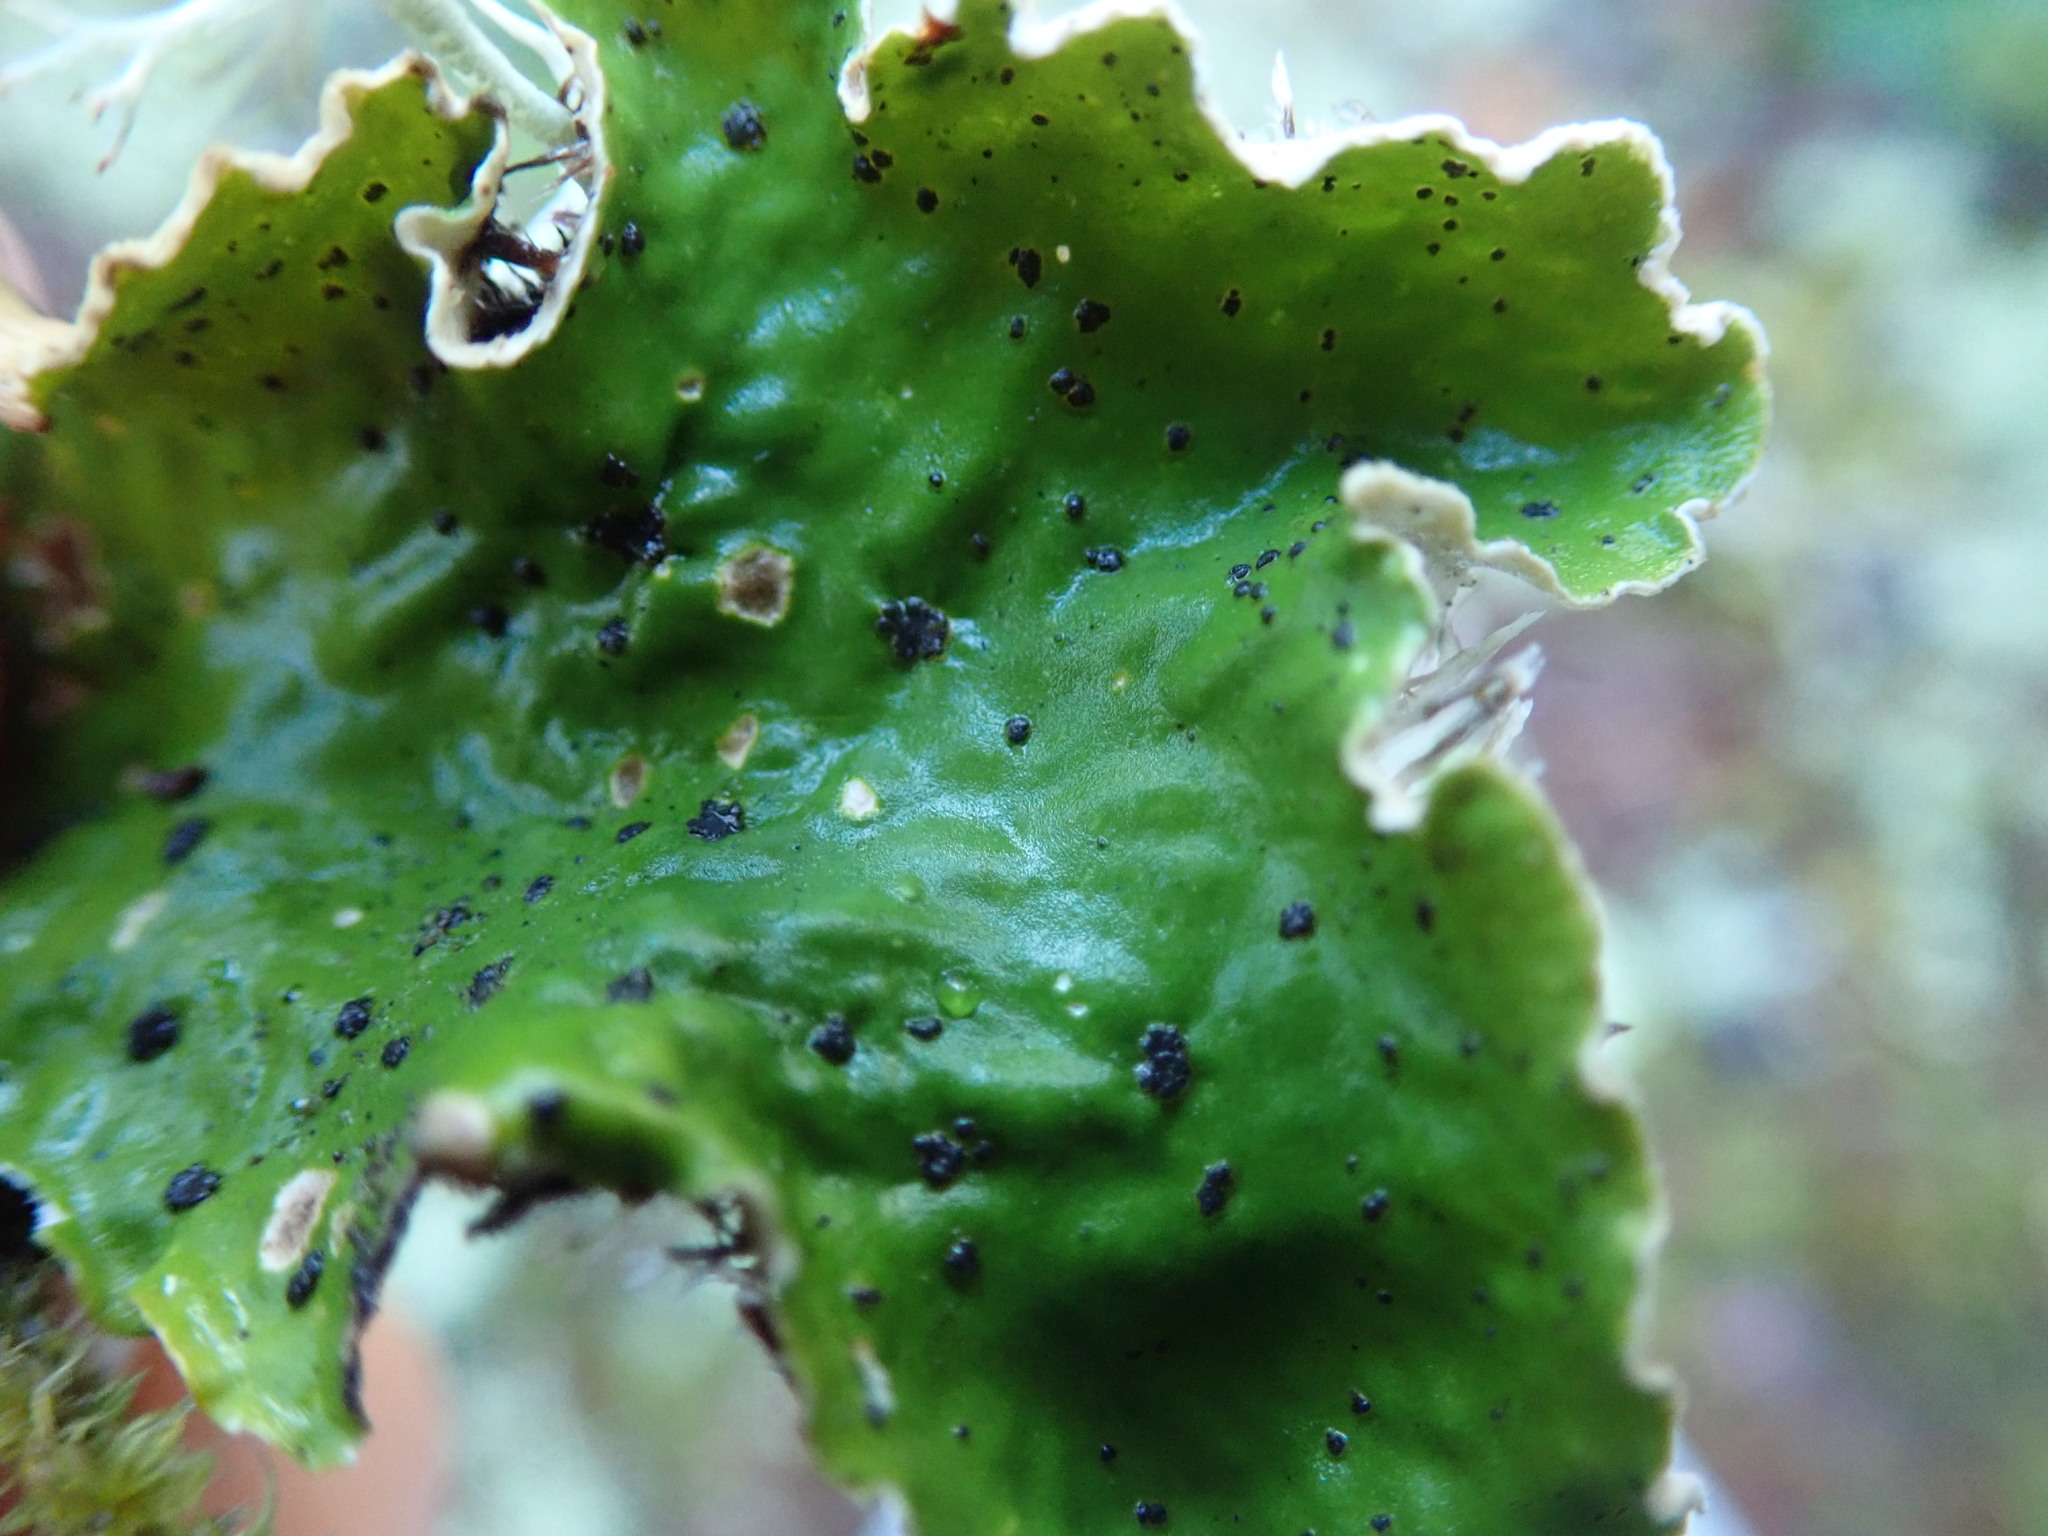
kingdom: Fungi
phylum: Ascomycota
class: Lecanoromycetes
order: Peltigerales
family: Peltigeraceae
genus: Peltigera
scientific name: Peltigera britannica
